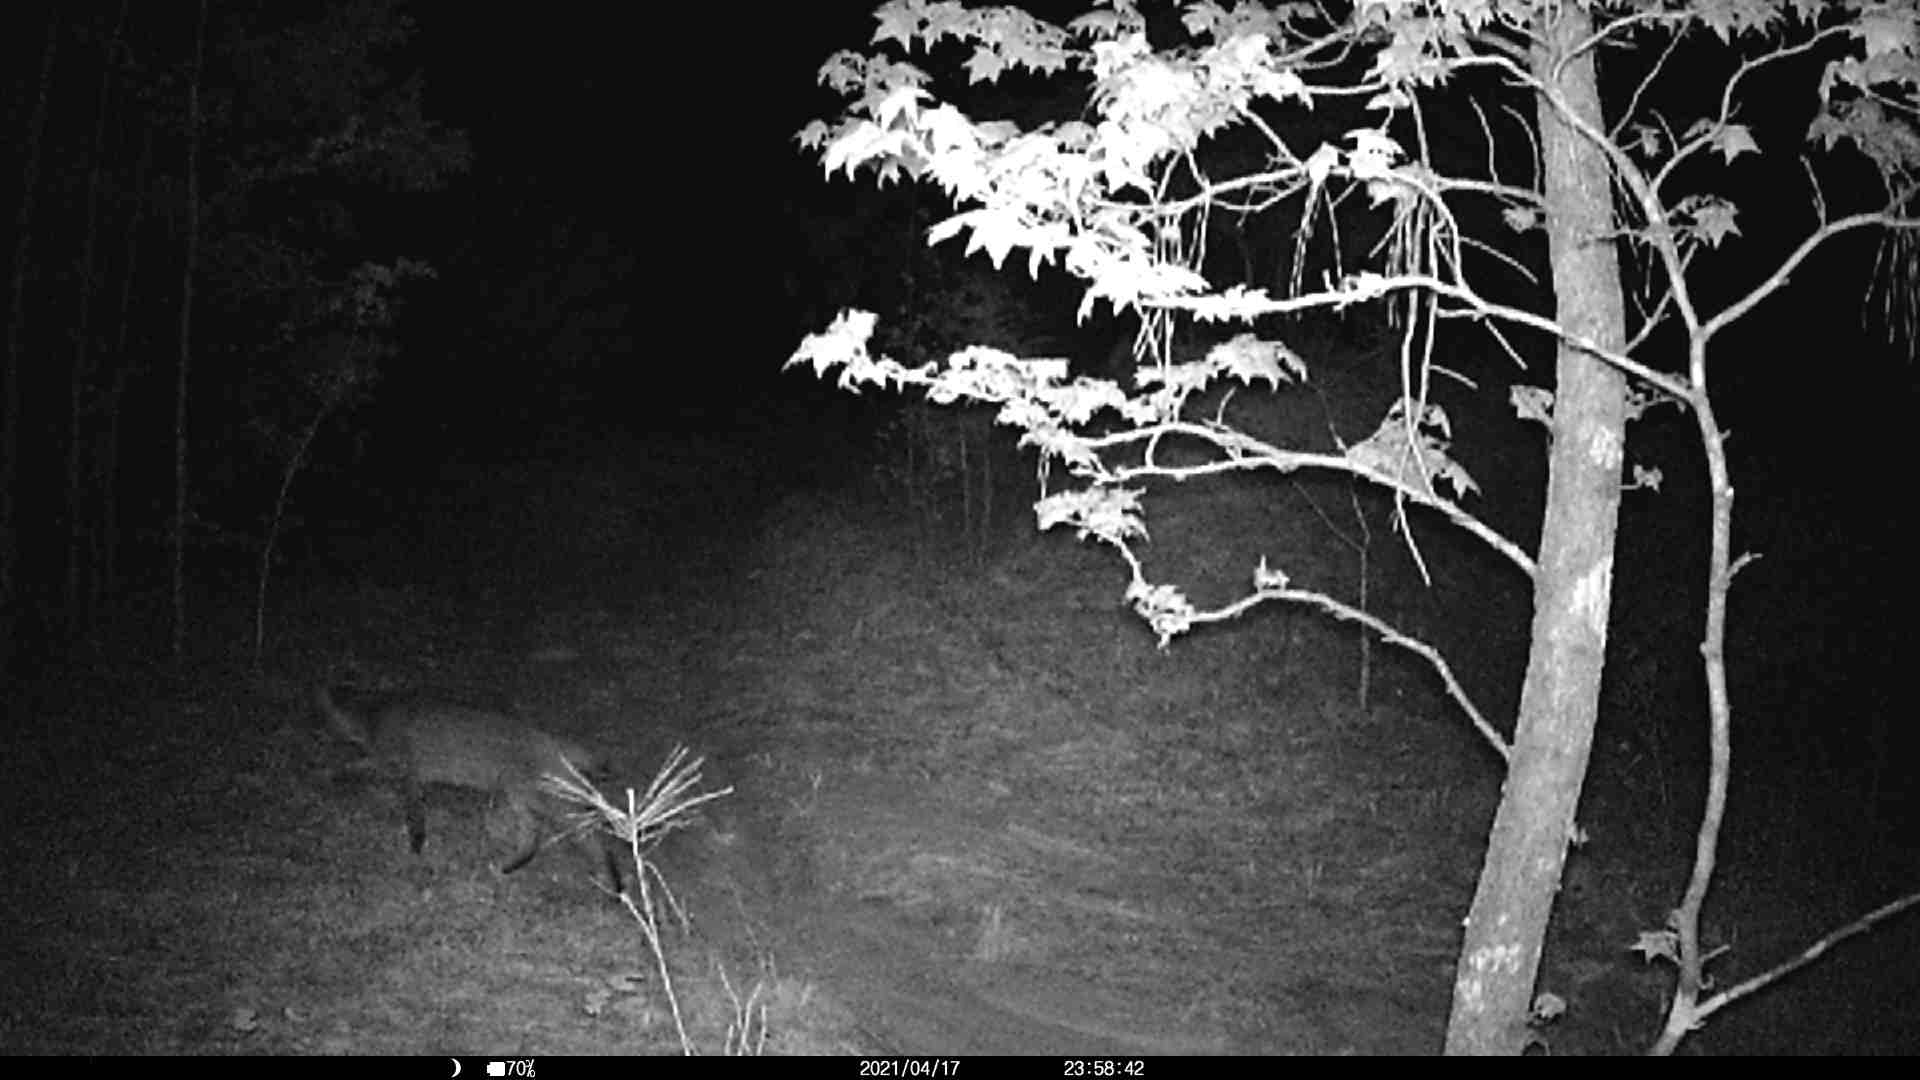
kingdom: Animalia
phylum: Chordata
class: Mammalia
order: Carnivora
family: Felidae
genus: Lynx
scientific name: Lynx rufus
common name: Bobcat
